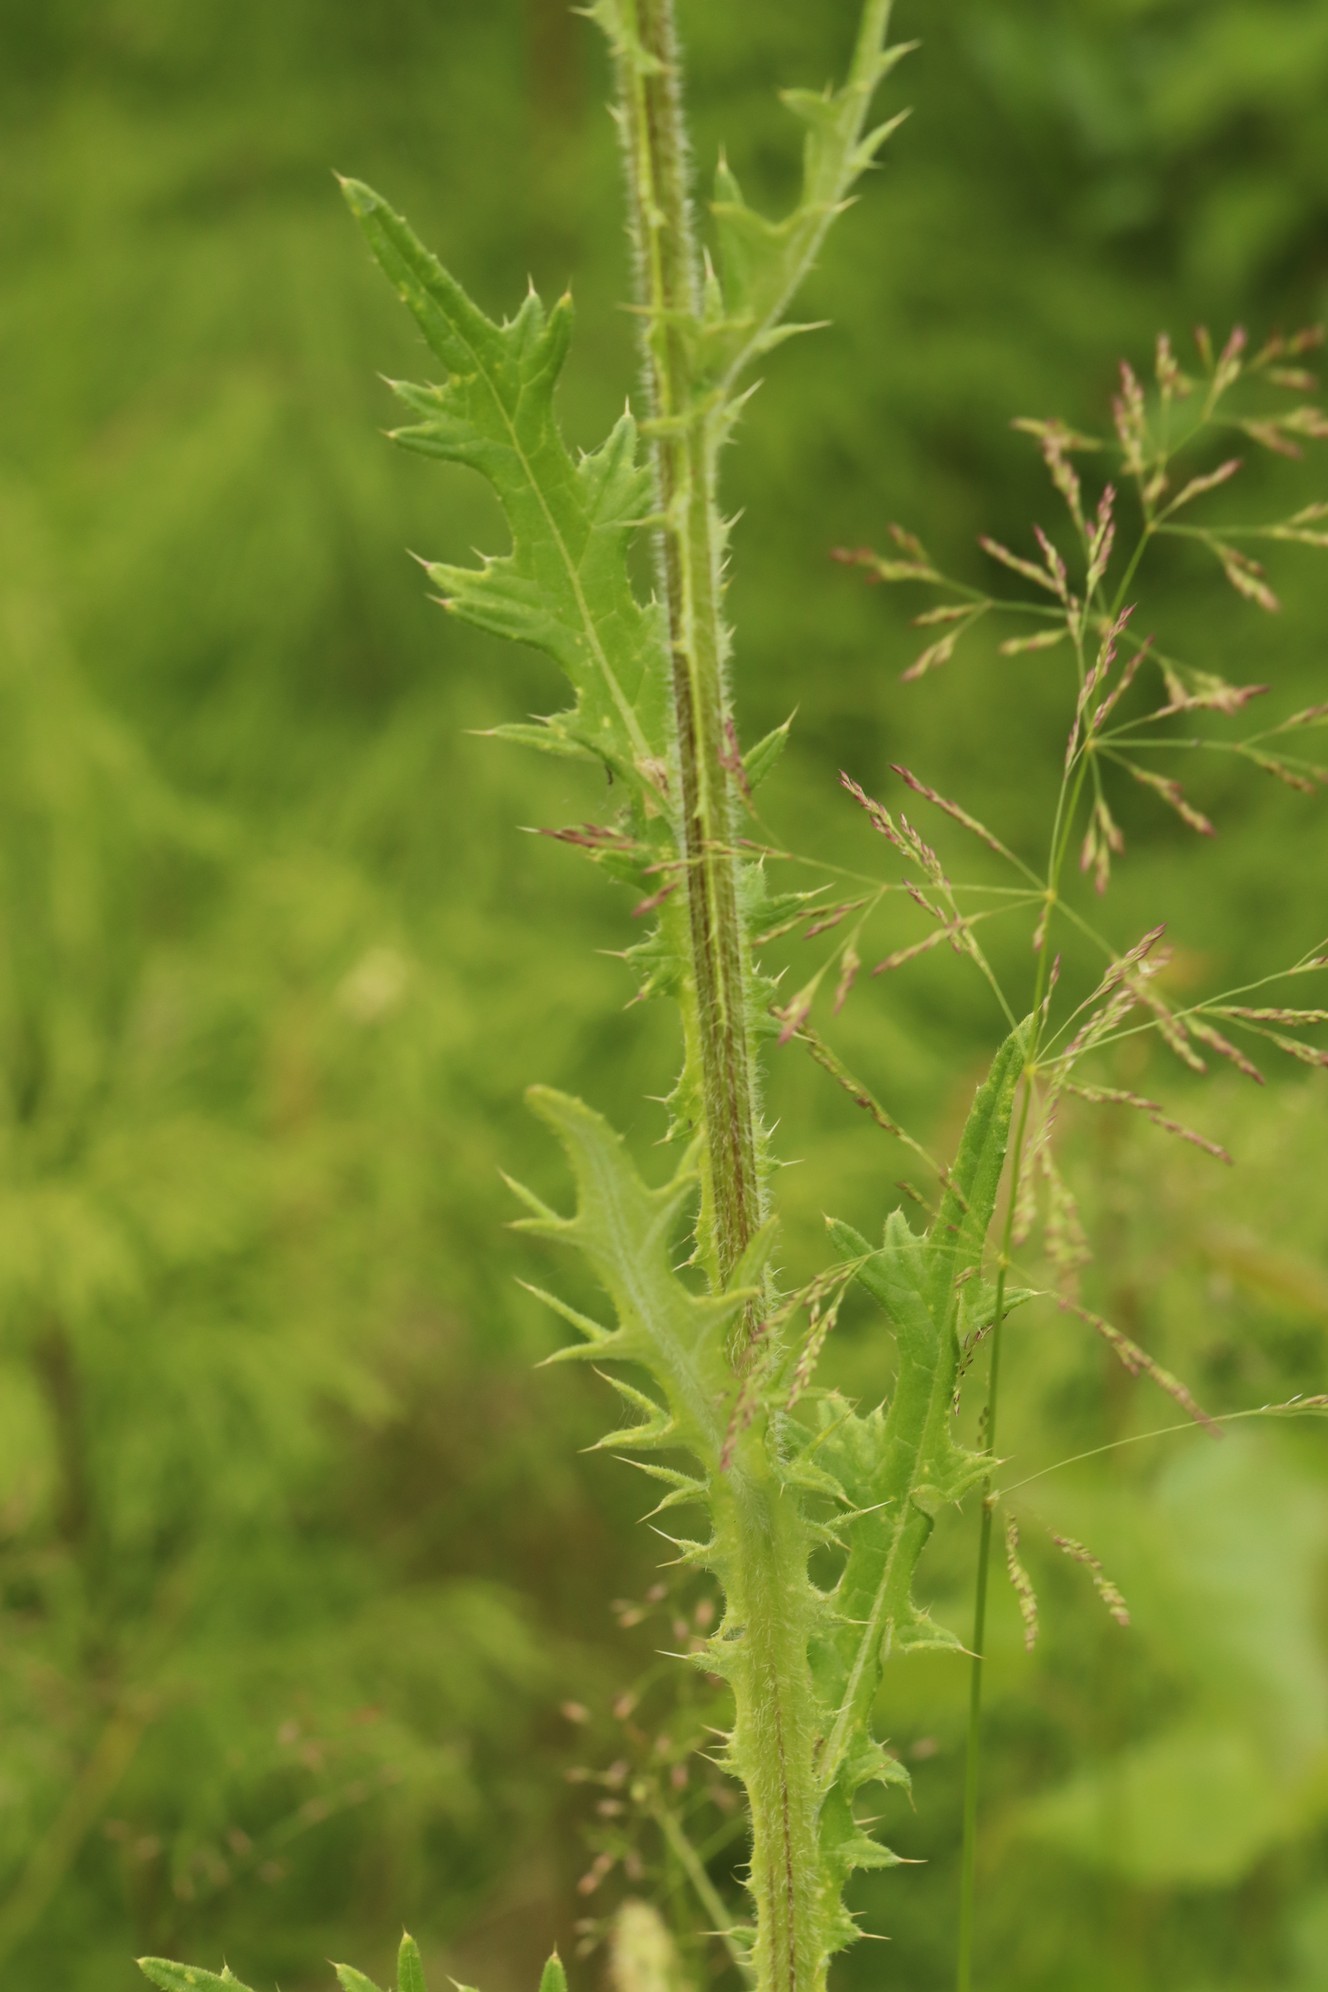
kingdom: Plantae
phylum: Tracheophyta
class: Magnoliopsida
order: Asterales
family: Asteraceae
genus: Cirsium
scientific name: Cirsium vulgare
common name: Bull thistle
